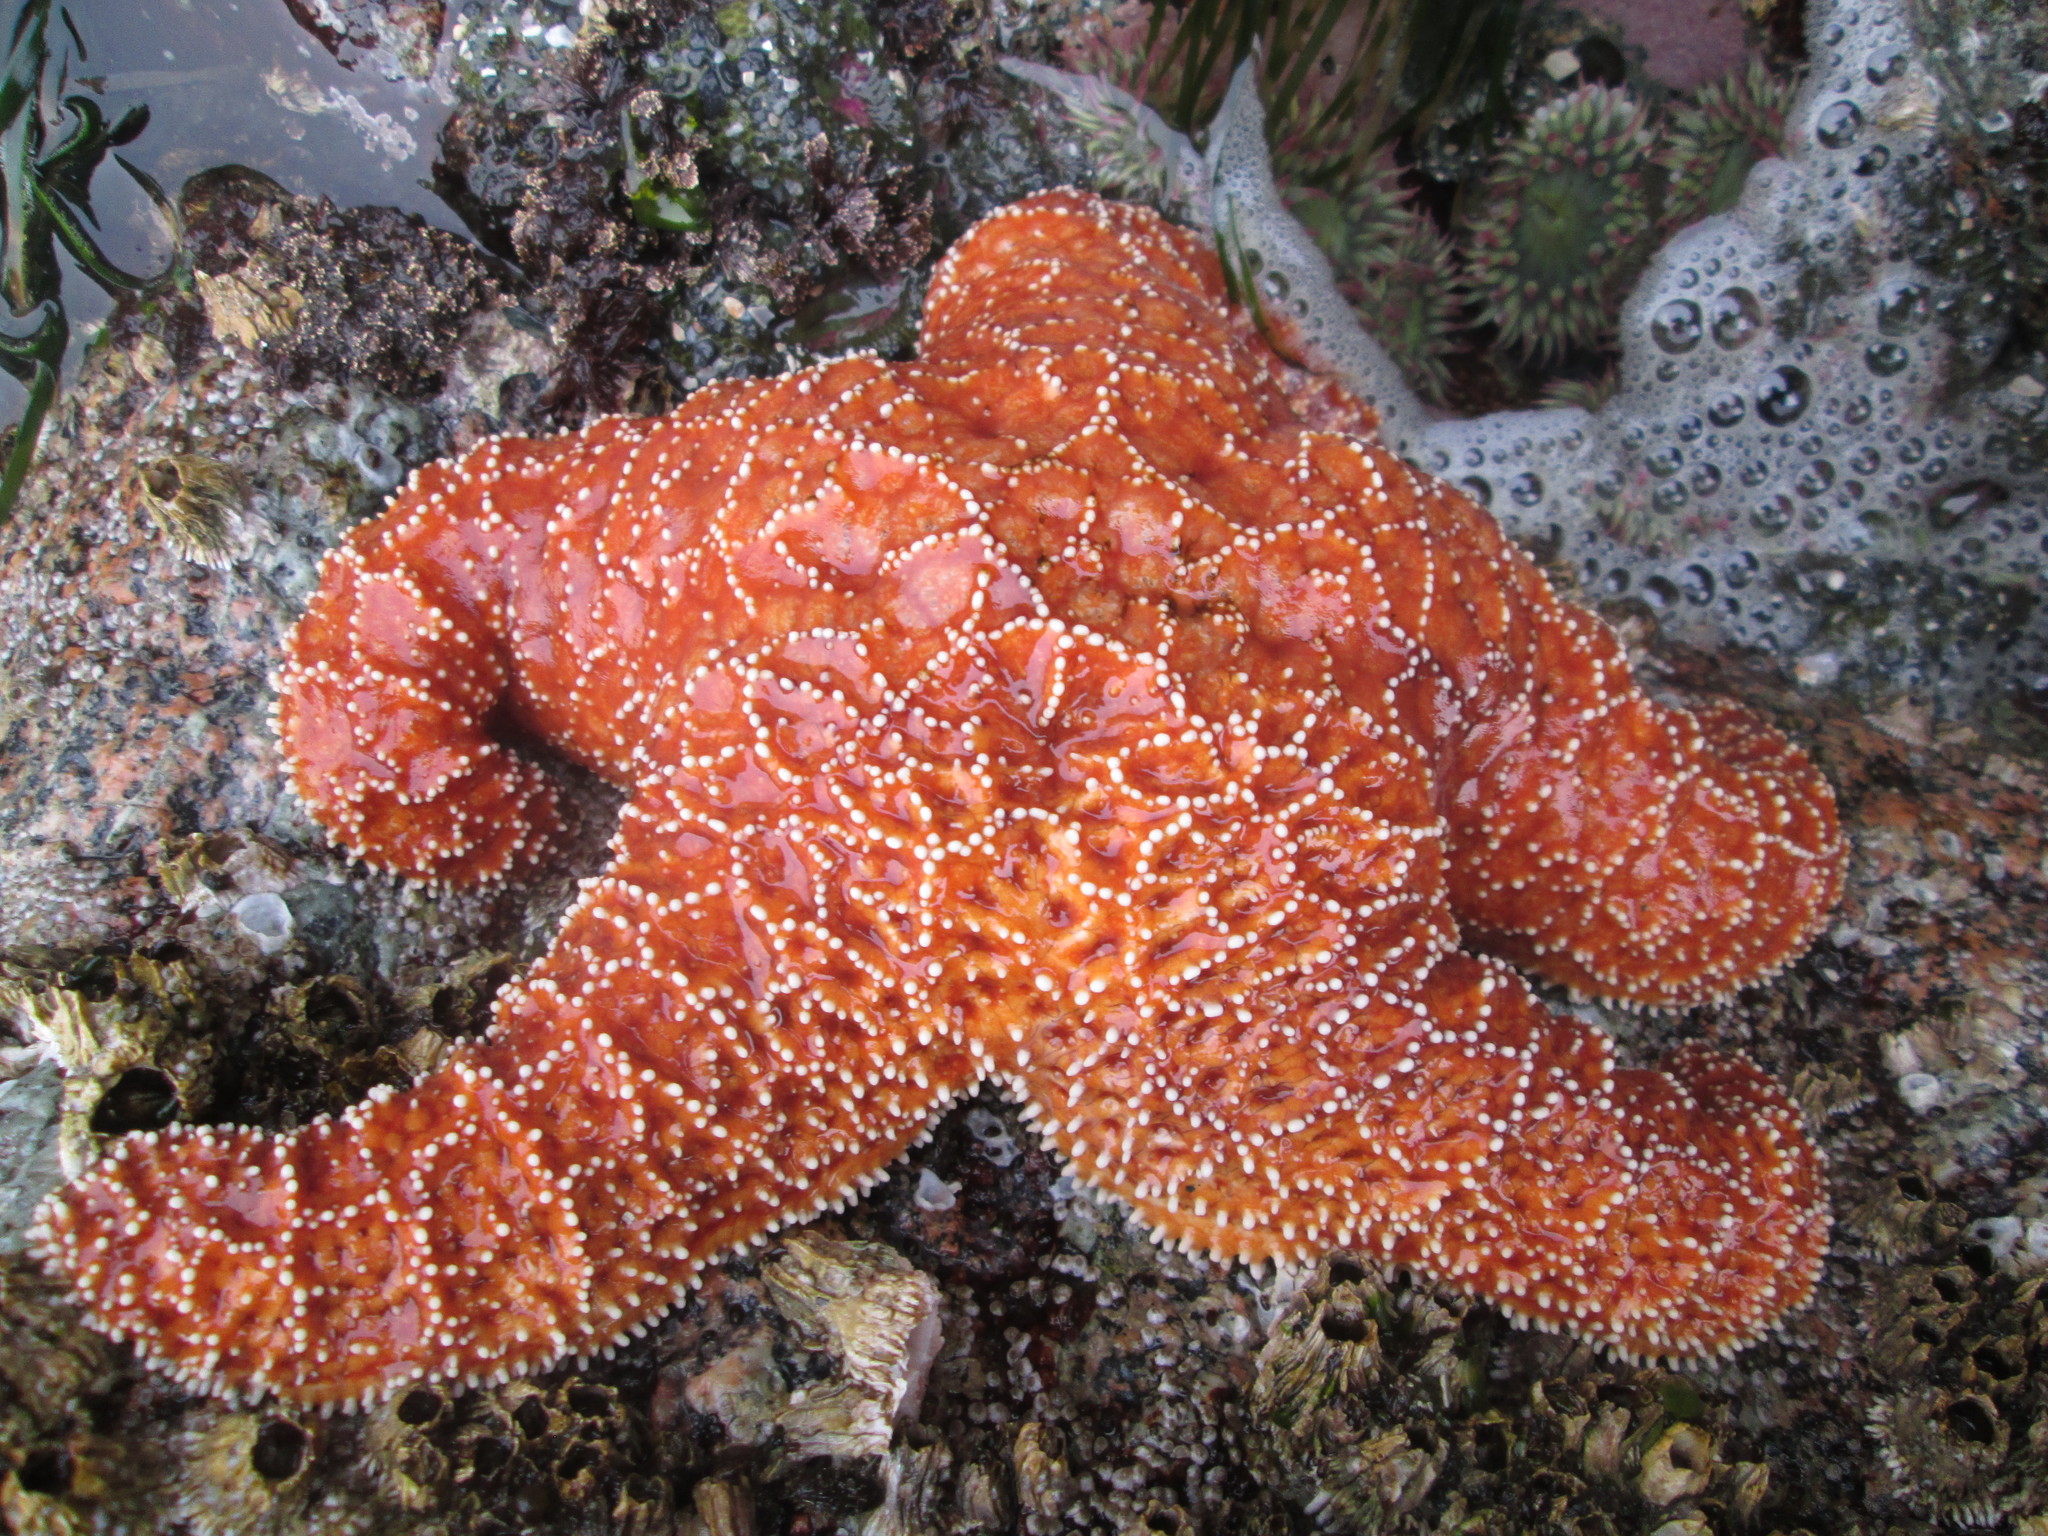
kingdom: Animalia
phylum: Echinodermata
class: Asteroidea
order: Forcipulatida
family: Asteriidae
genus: Pisaster
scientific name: Pisaster ochraceus
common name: Ochre stars
